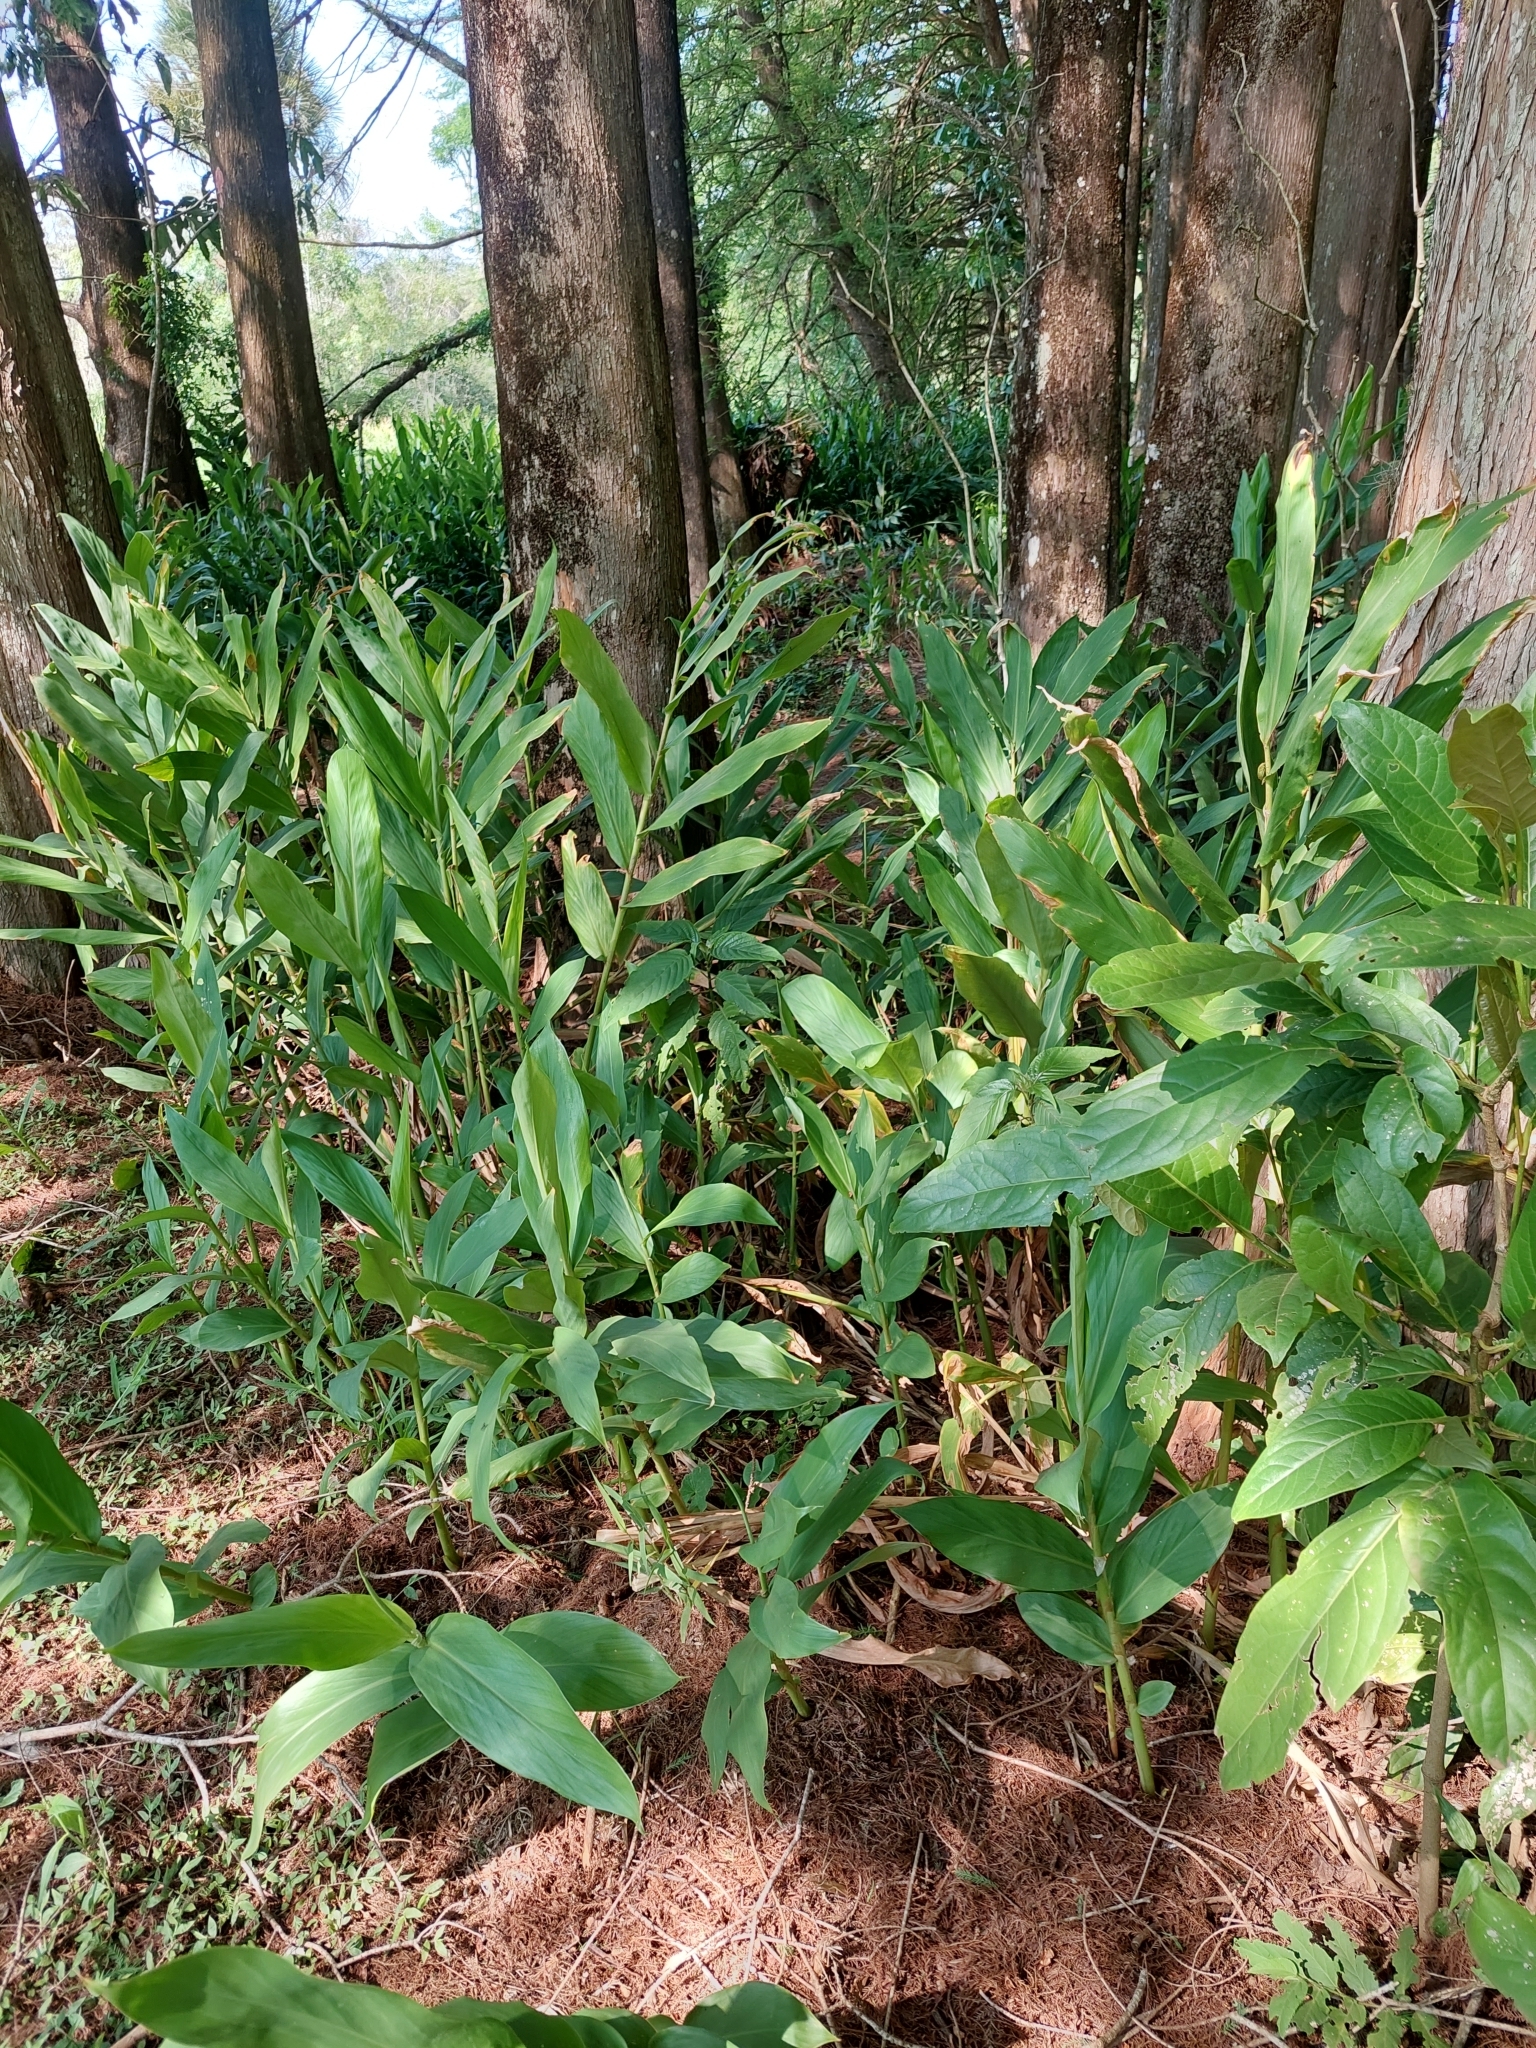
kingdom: Plantae
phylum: Tracheophyta
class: Liliopsida
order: Zingiberales
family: Zingiberaceae
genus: Hedychium
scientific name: Hedychium coronarium
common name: White garland-lily
